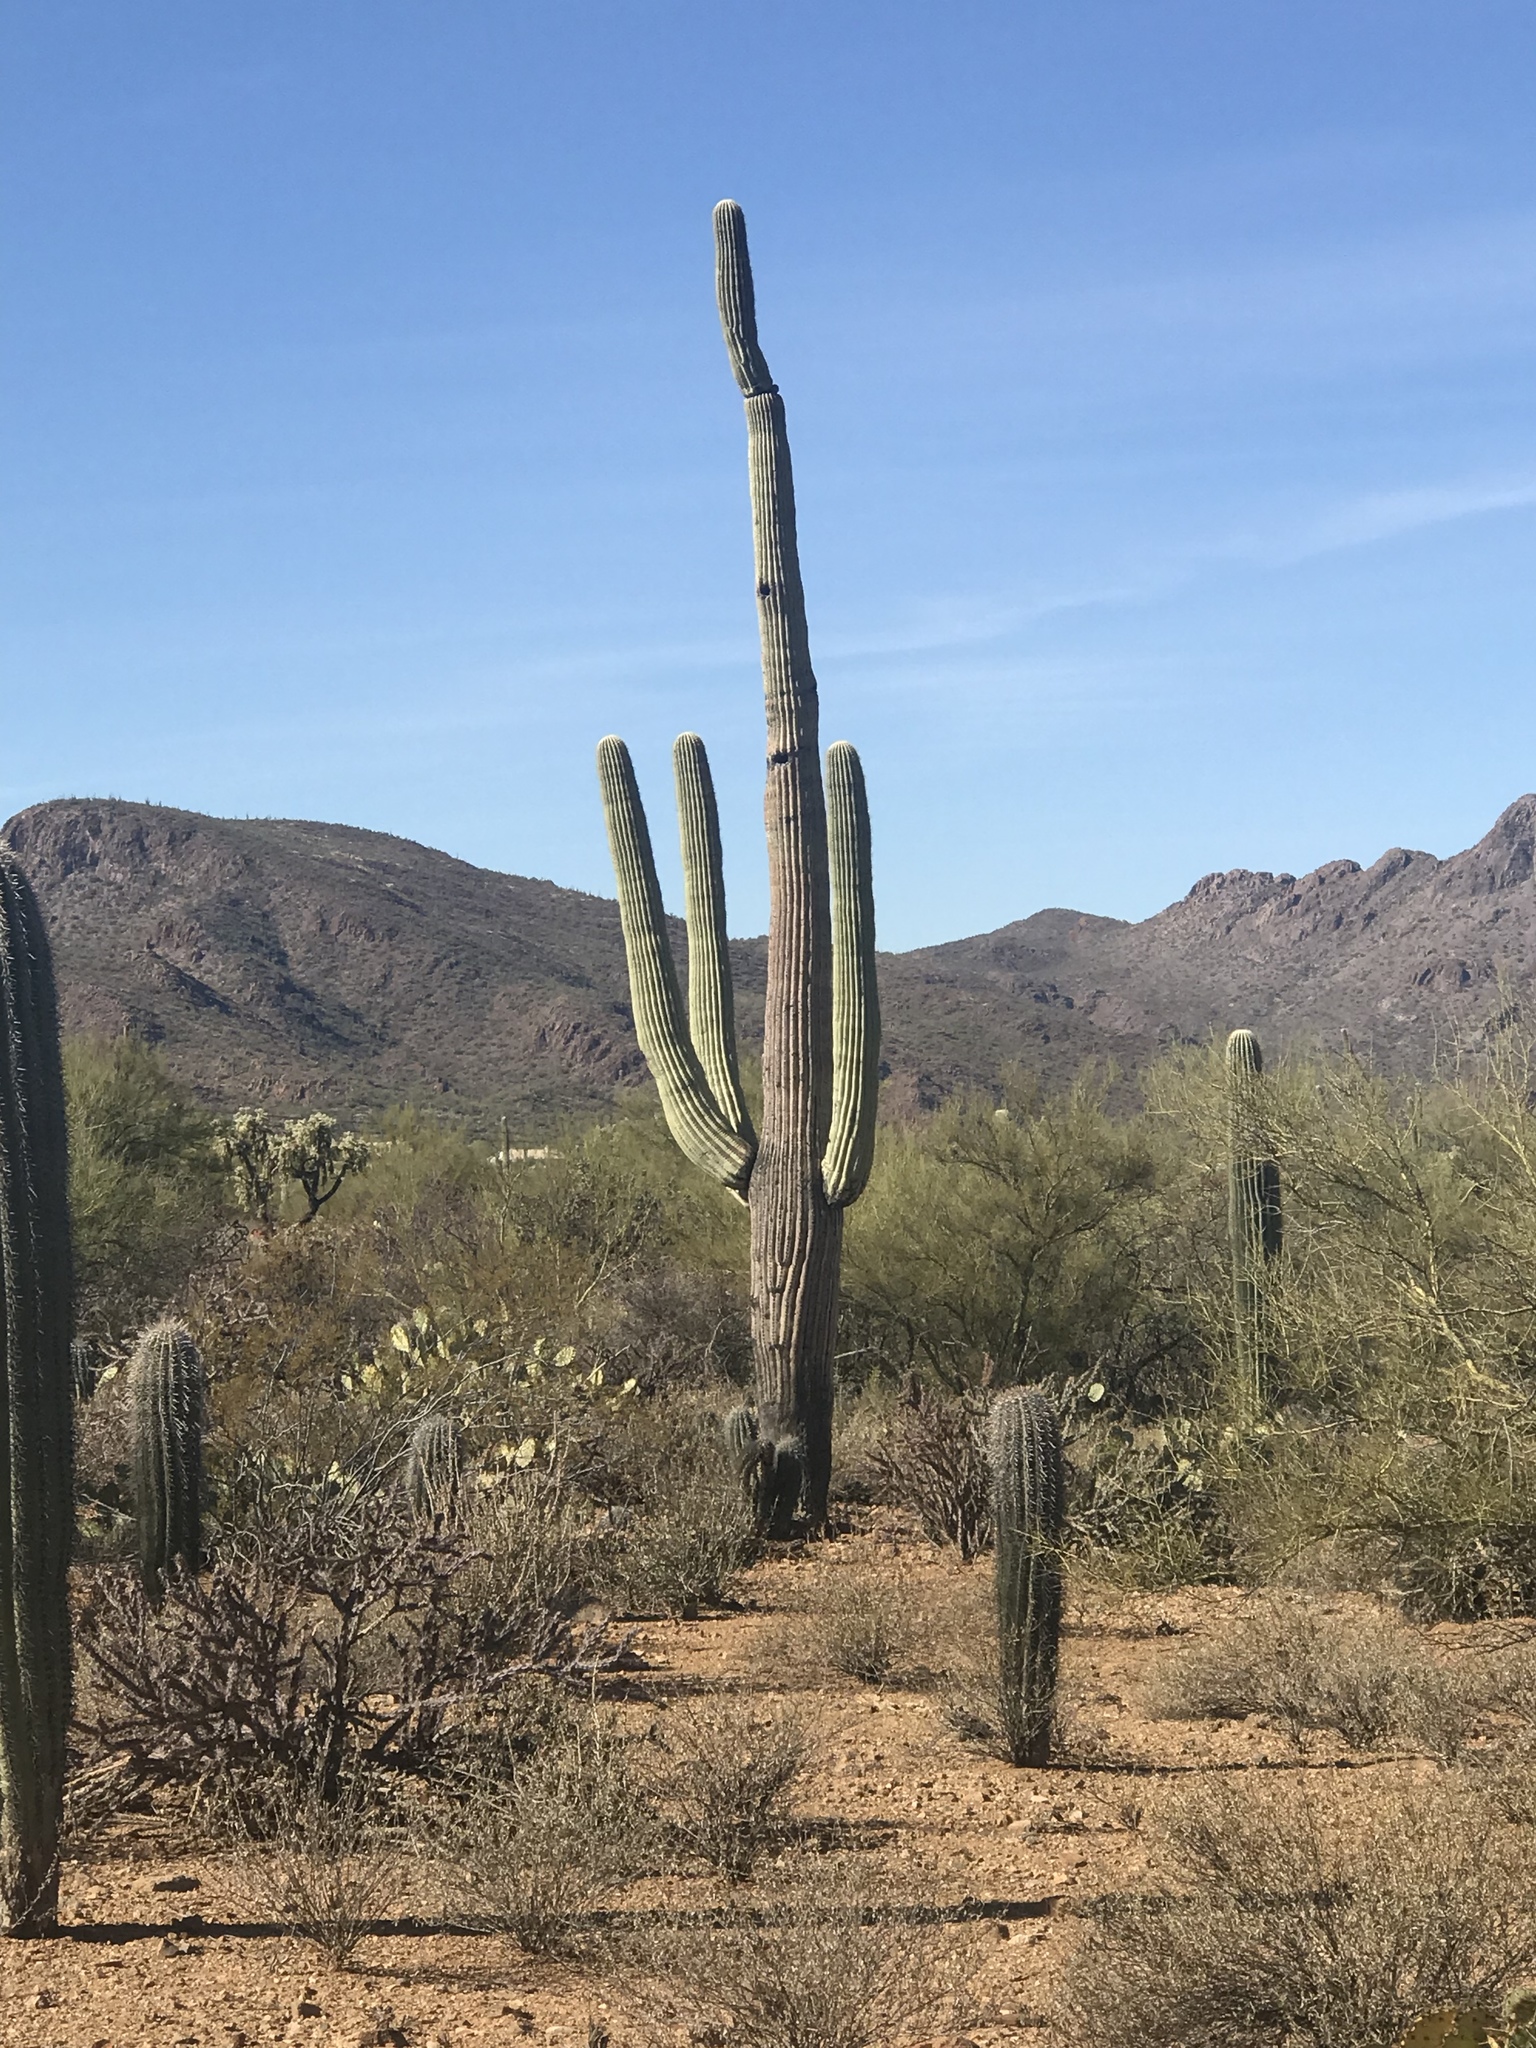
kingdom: Plantae
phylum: Tracheophyta
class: Magnoliopsida
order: Caryophyllales
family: Cactaceae
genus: Carnegiea
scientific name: Carnegiea gigantea
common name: Saguaro
